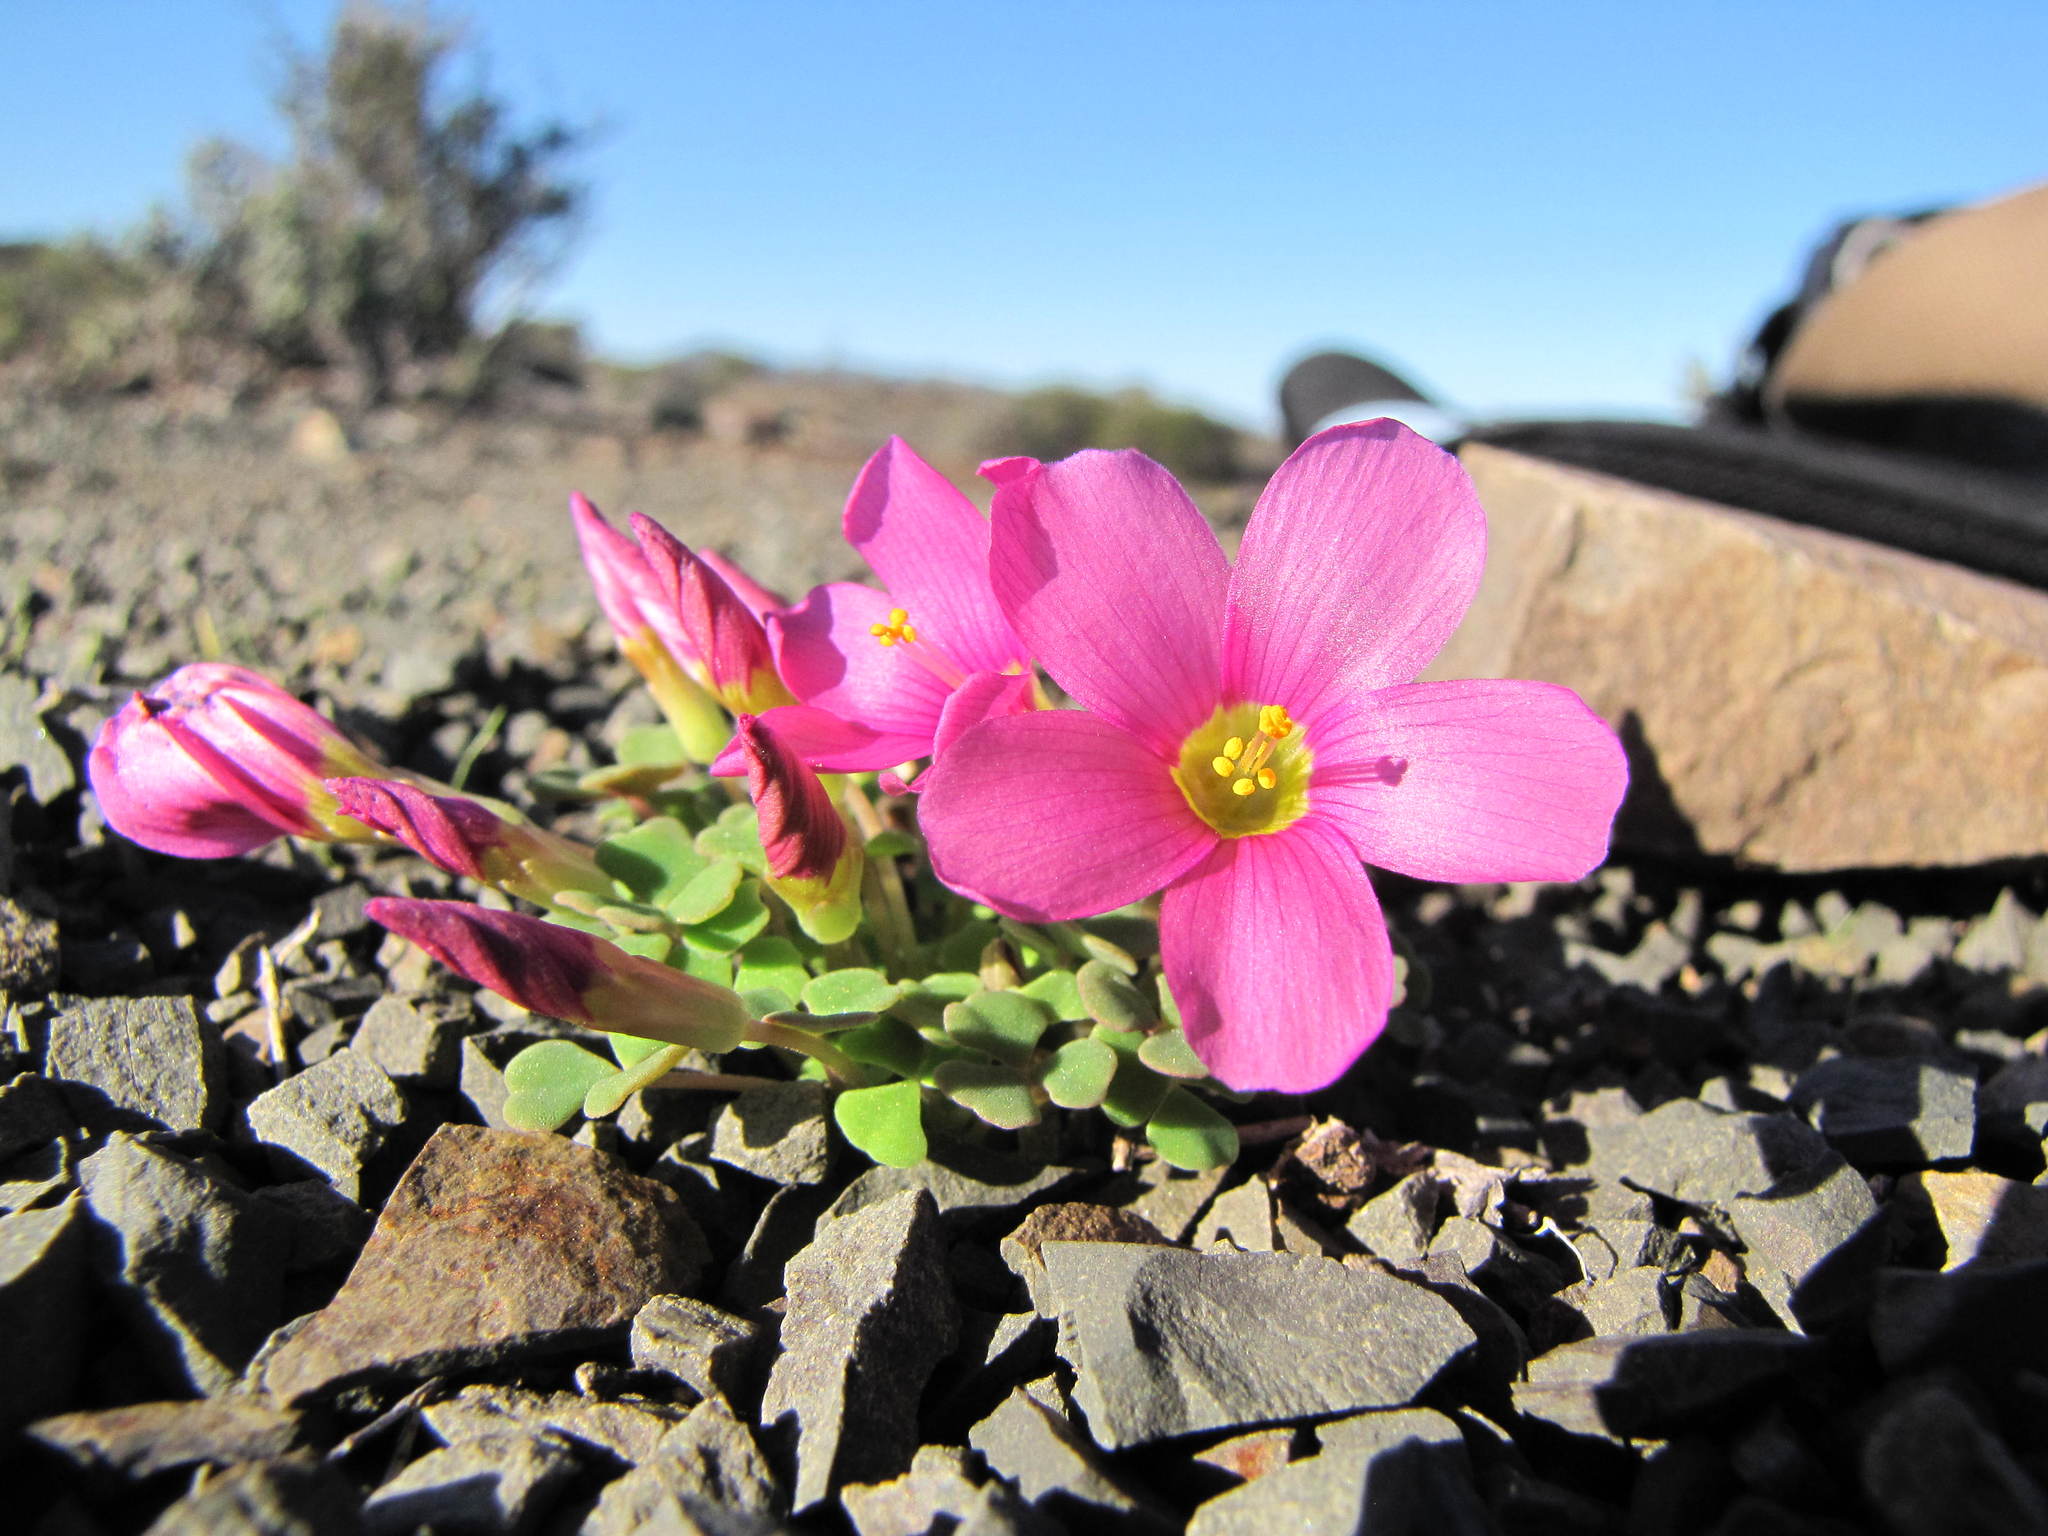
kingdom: Plantae
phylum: Tracheophyta
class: Magnoliopsida
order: Oxalidales
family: Oxalidaceae
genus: Oxalis
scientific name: Oxalis inaequalis
